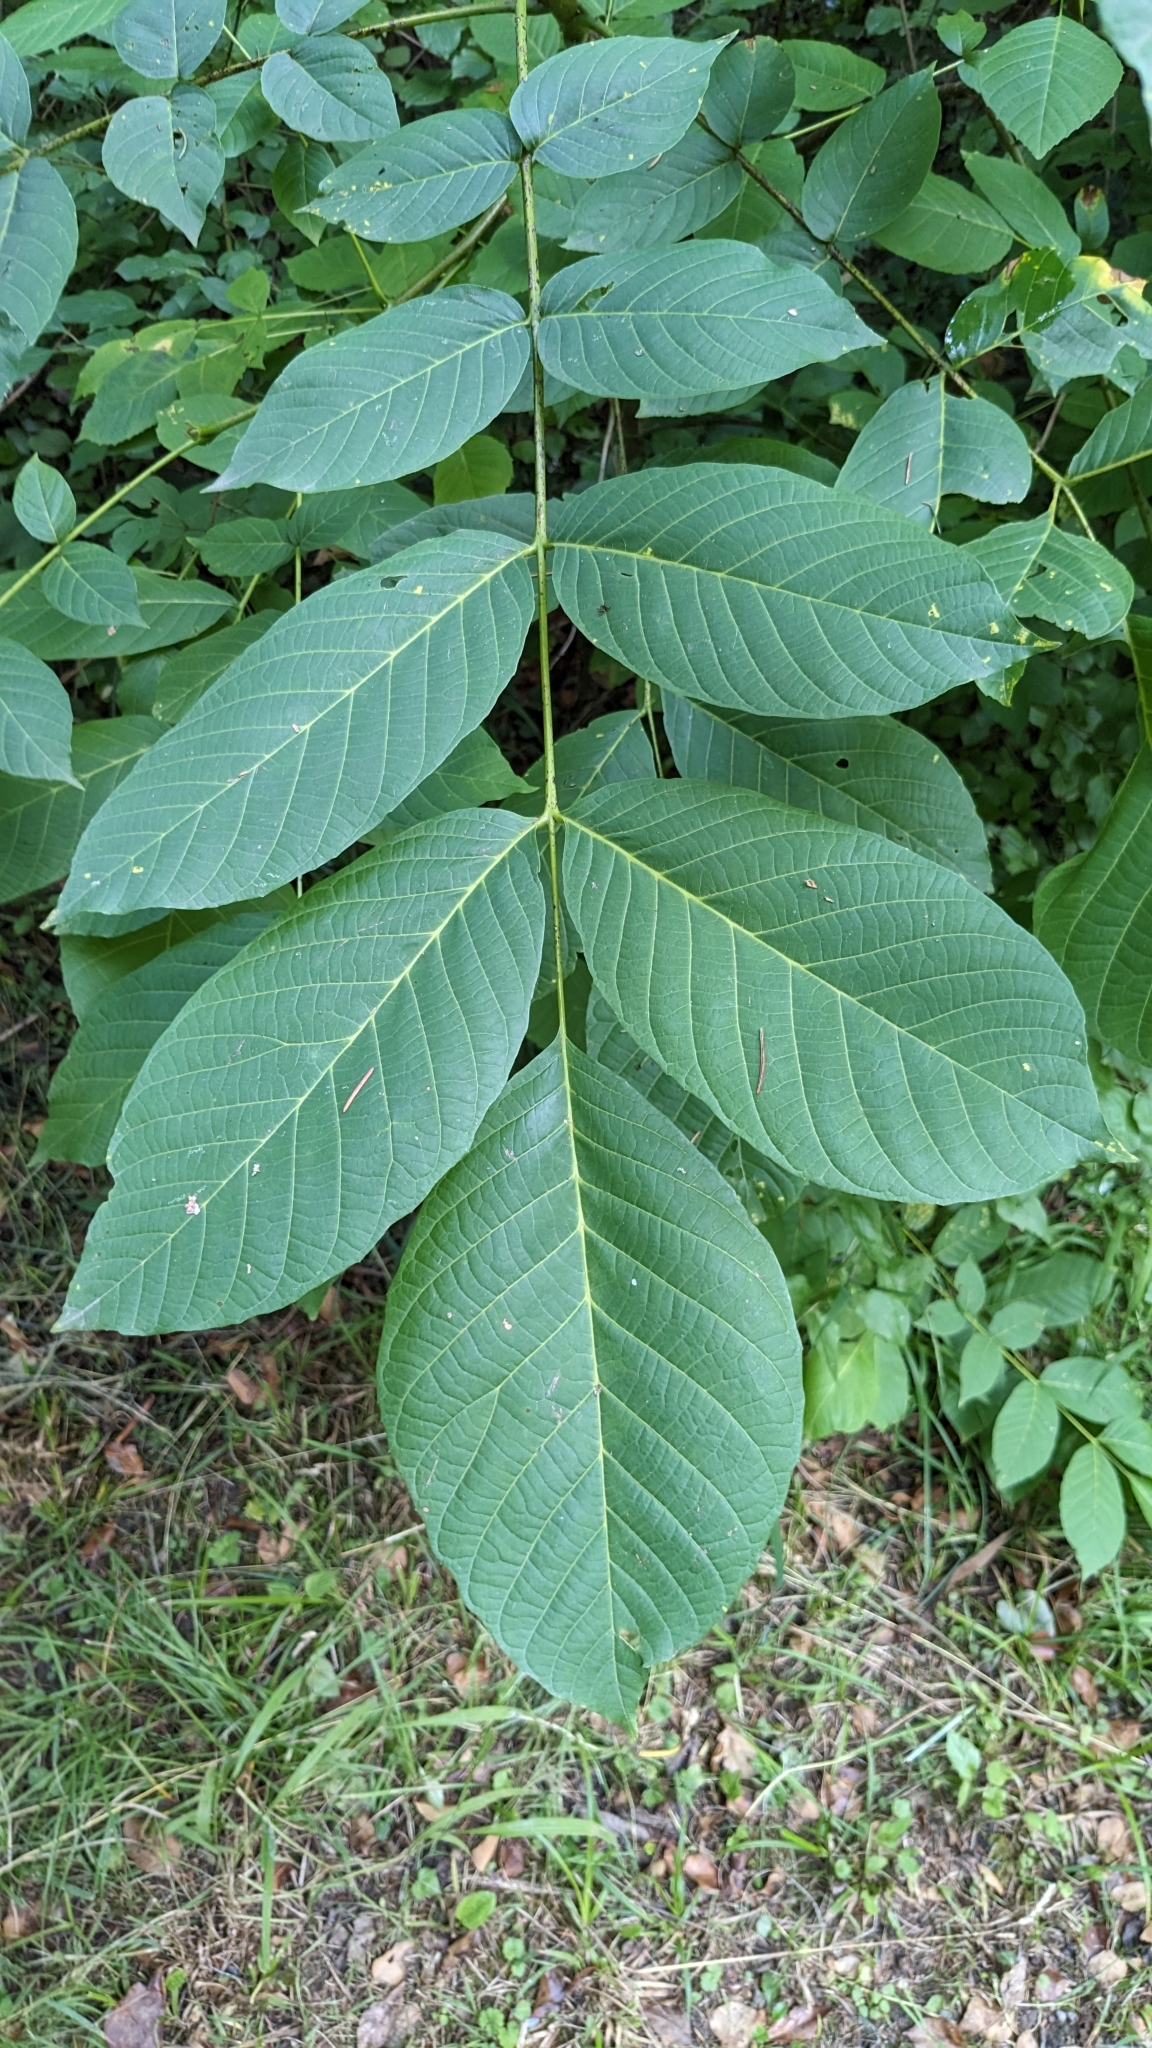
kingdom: Plantae
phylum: Tracheophyta
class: Magnoliopsida
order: Fagales
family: Juglandaceae
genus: Juglans
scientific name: Juglans regia
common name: Walnut
